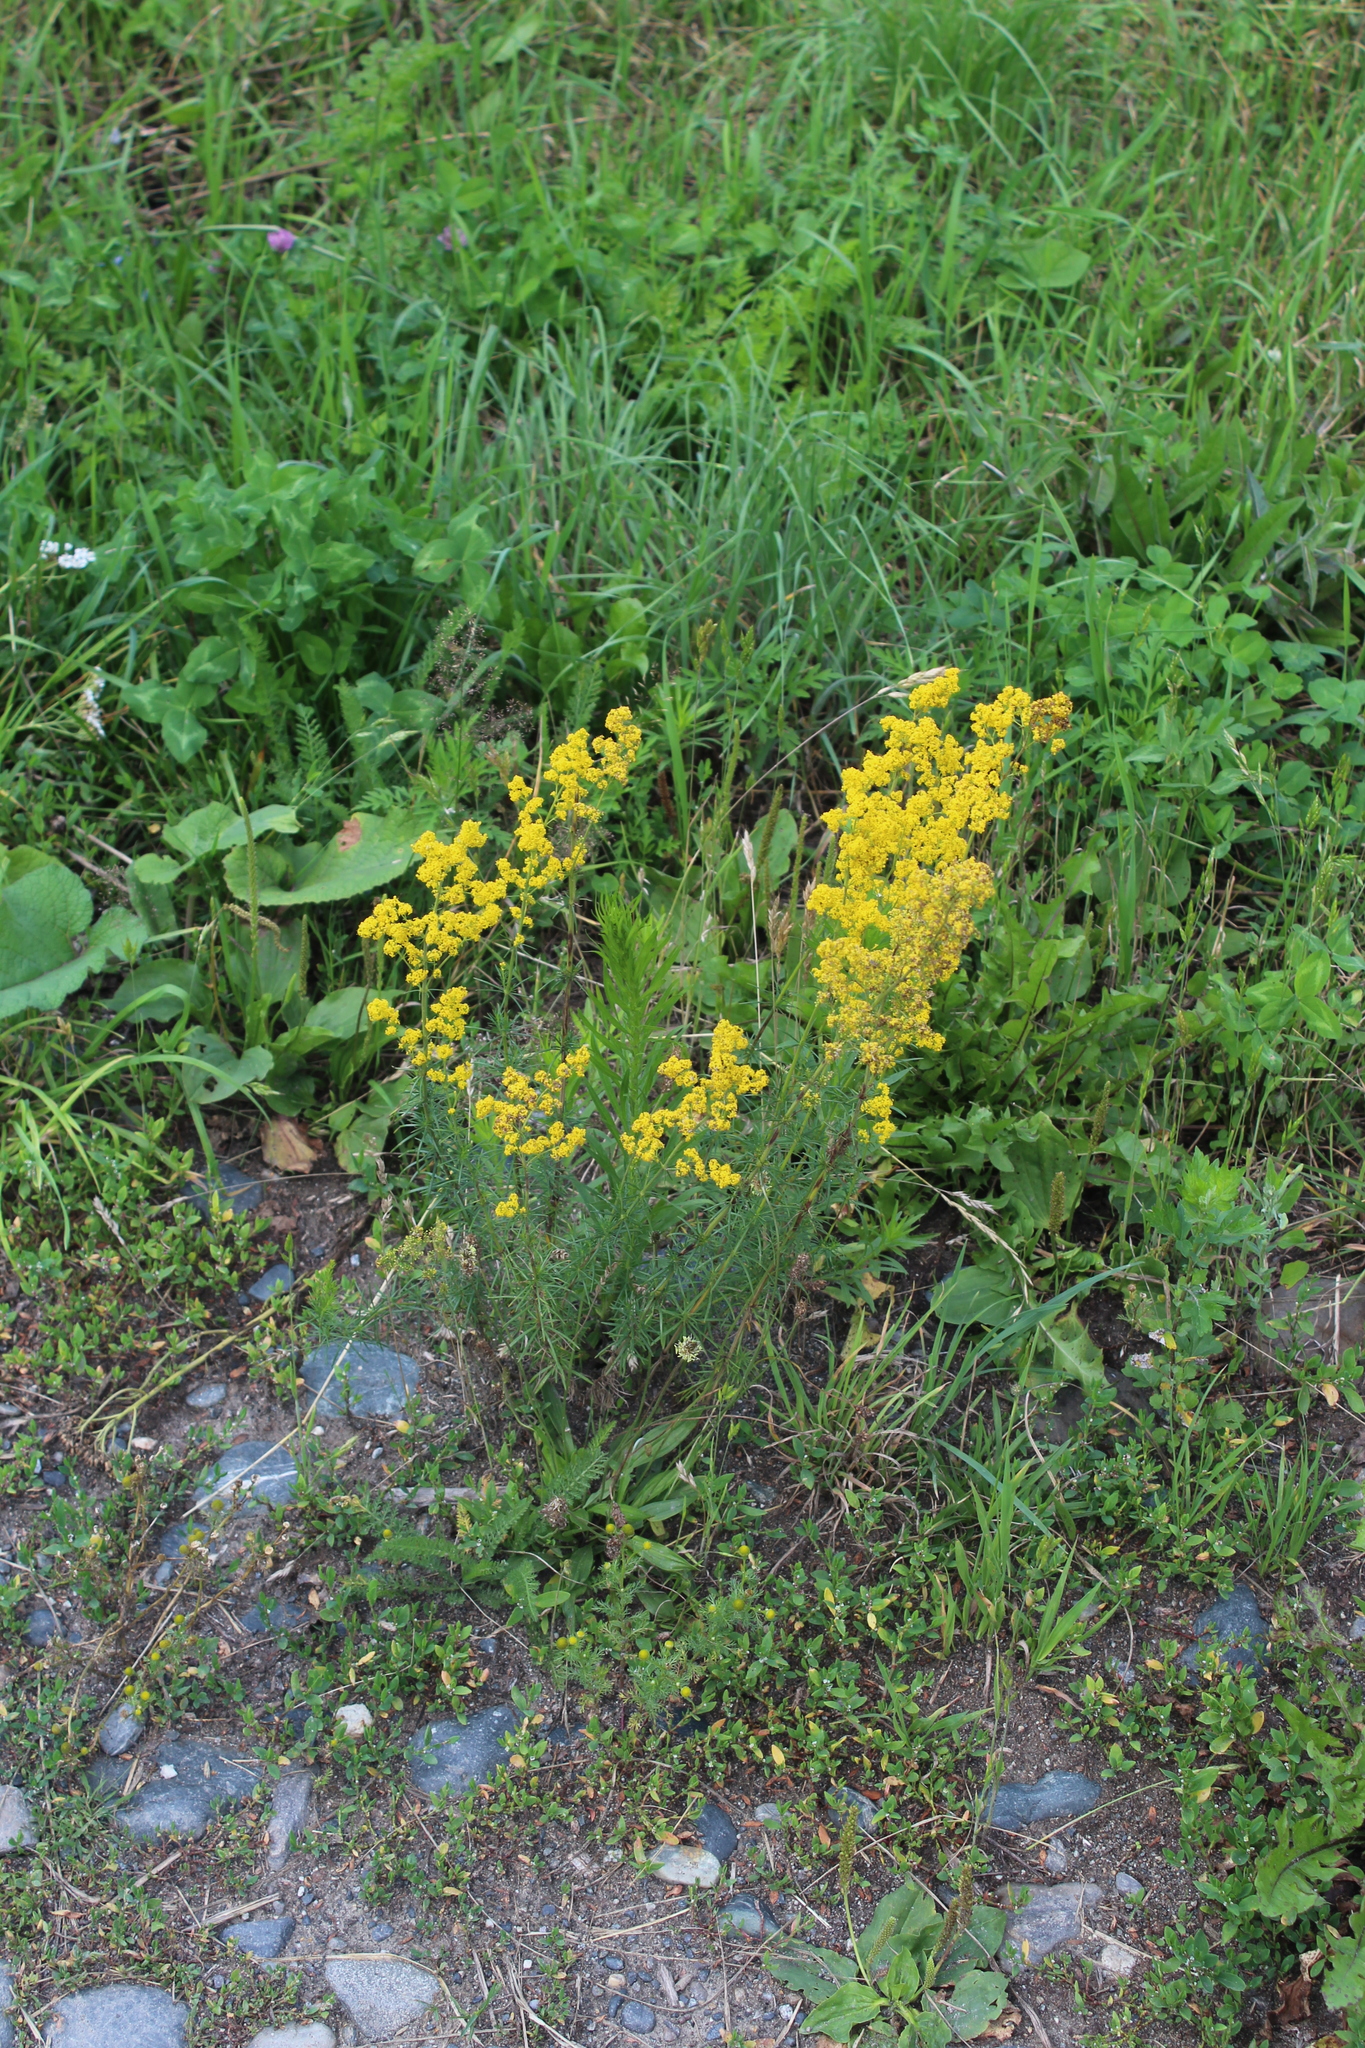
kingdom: Plantae
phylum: Tracheophyta
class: Magnoliopsida
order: Gentianales
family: Rubiaceae
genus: Galium
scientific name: Galium verum
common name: Lady's bedstraw
